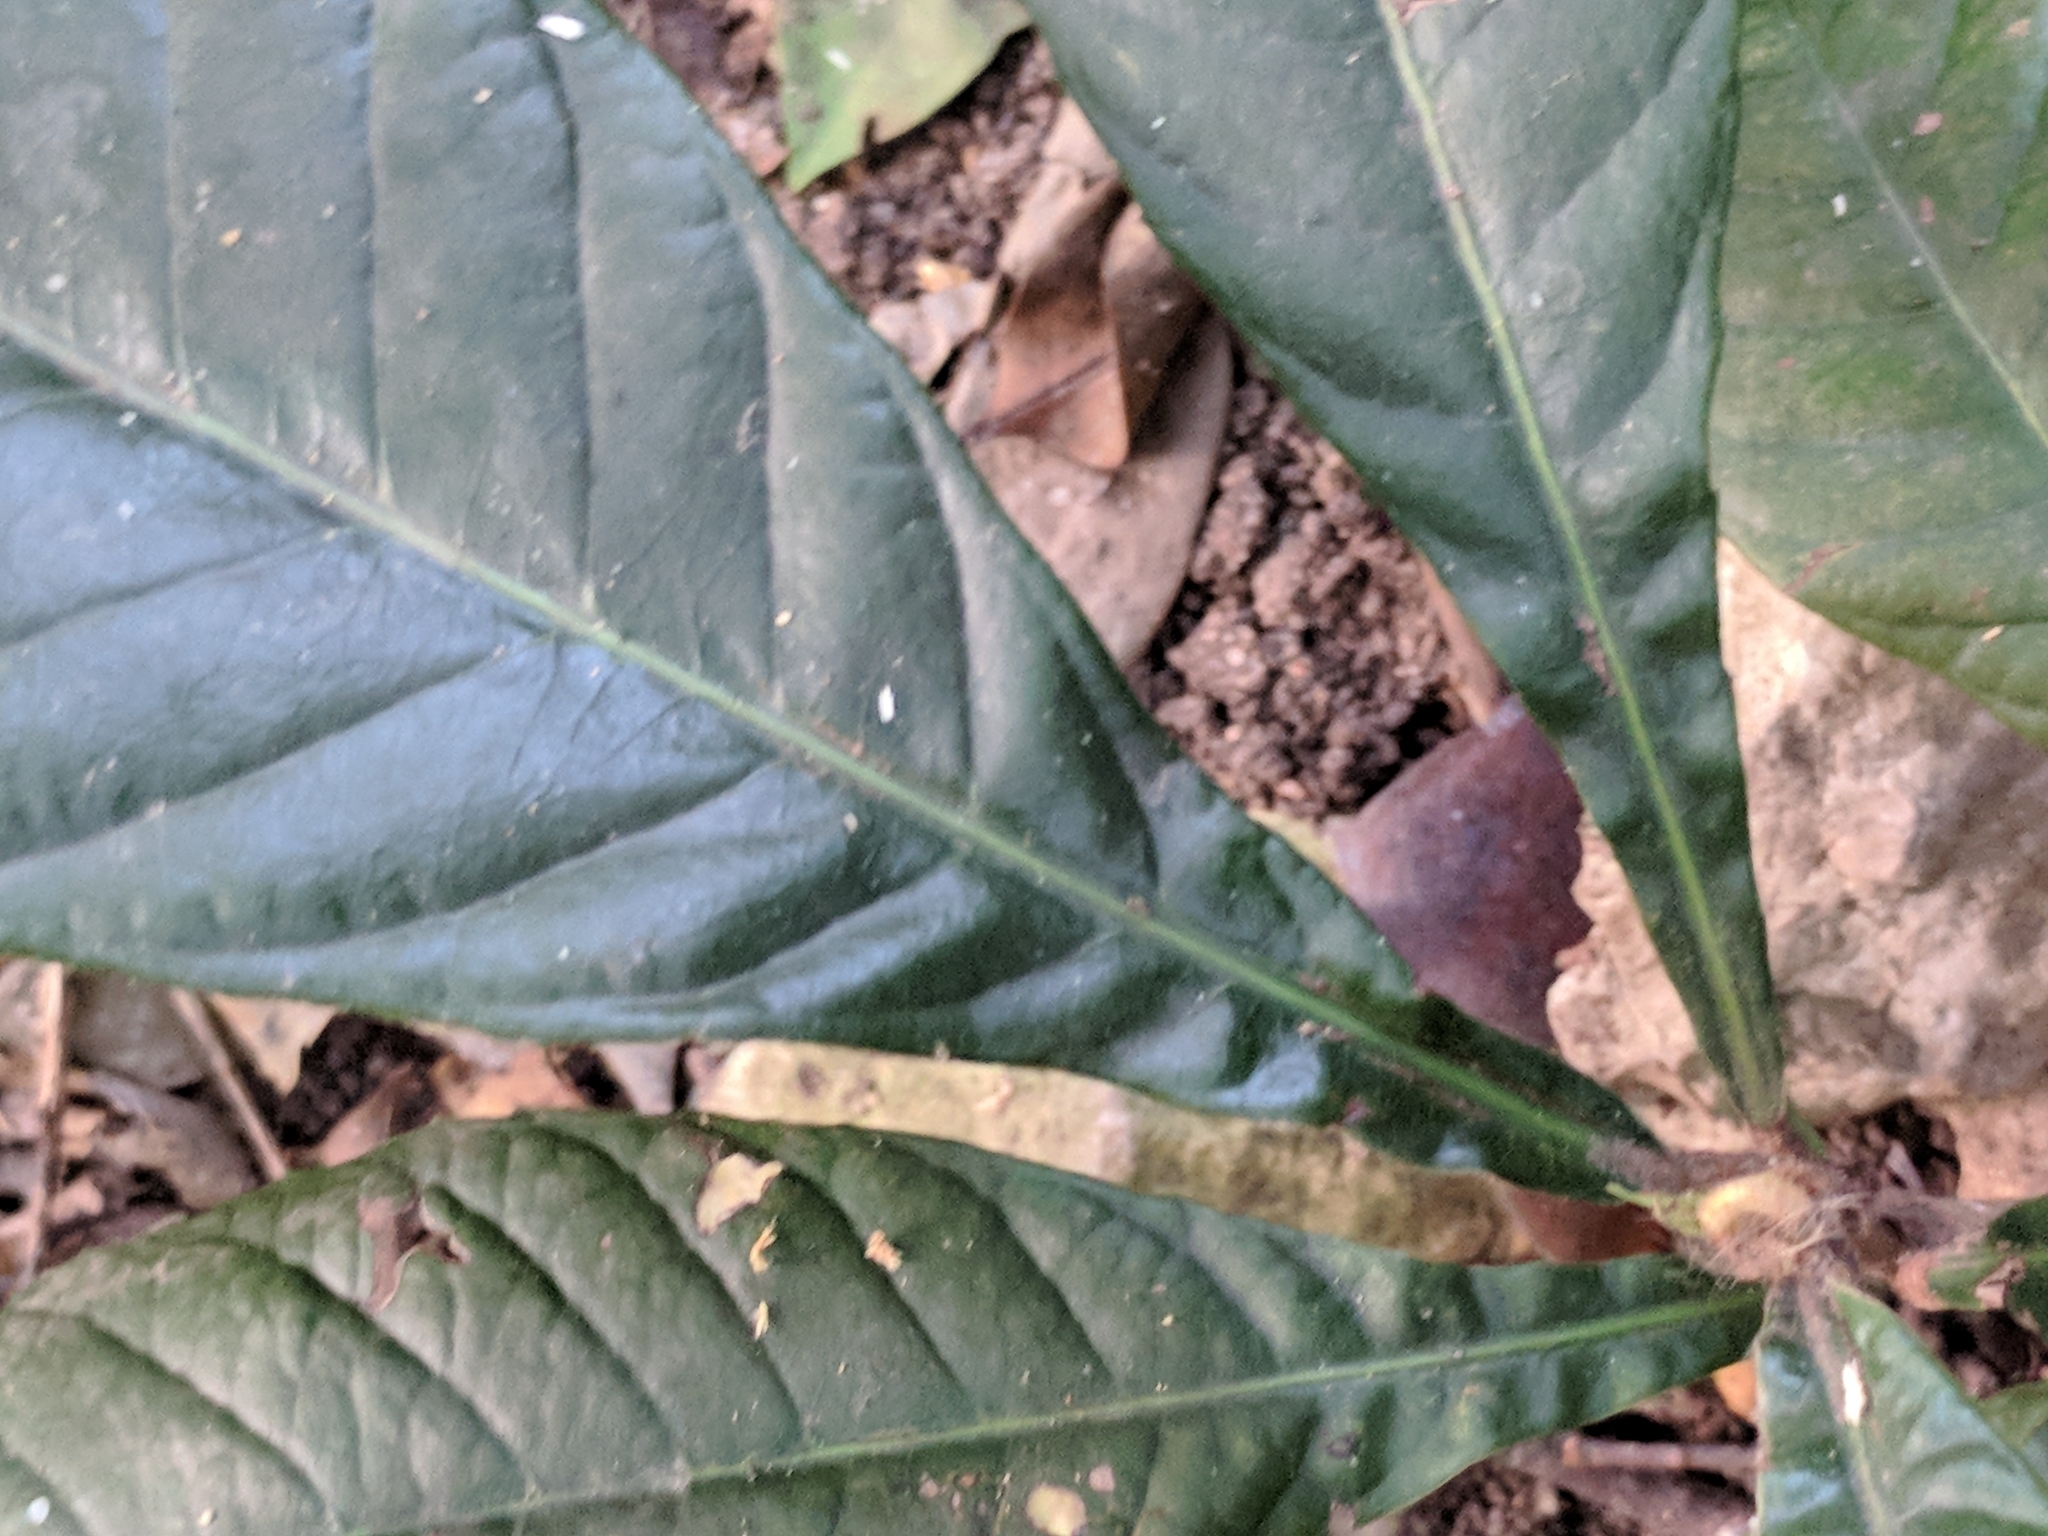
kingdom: Plantae
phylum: Tracheophyta
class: Magnoliopsida
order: Rosales
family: Rosaceae
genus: Rhaphiolepis
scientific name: Rhaphiolepis bibas
